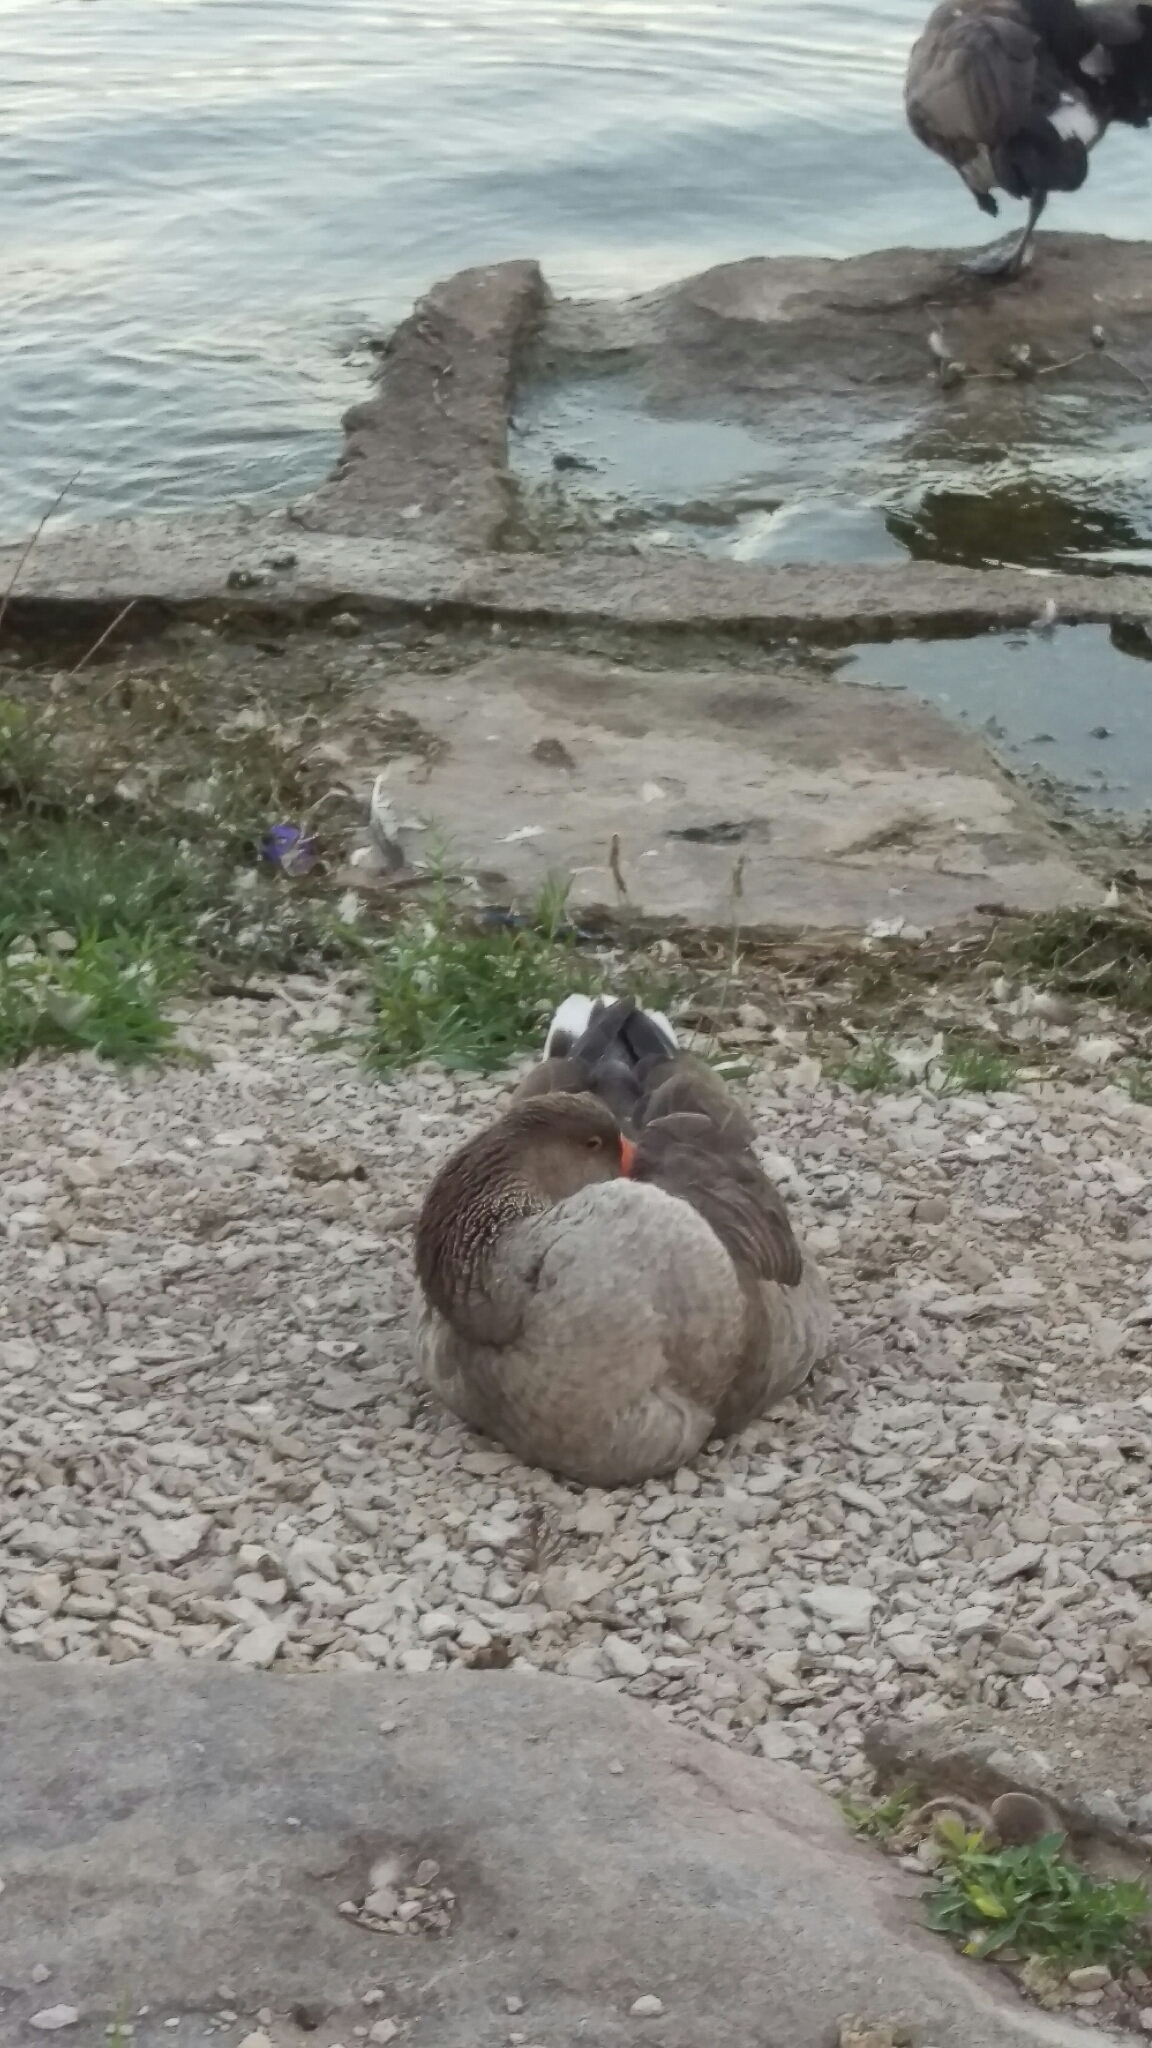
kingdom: Animalia
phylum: Chordata
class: Aves
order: Anseriformes
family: Anatidae
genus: Anser
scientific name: Anser anser
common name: Greylag goose
